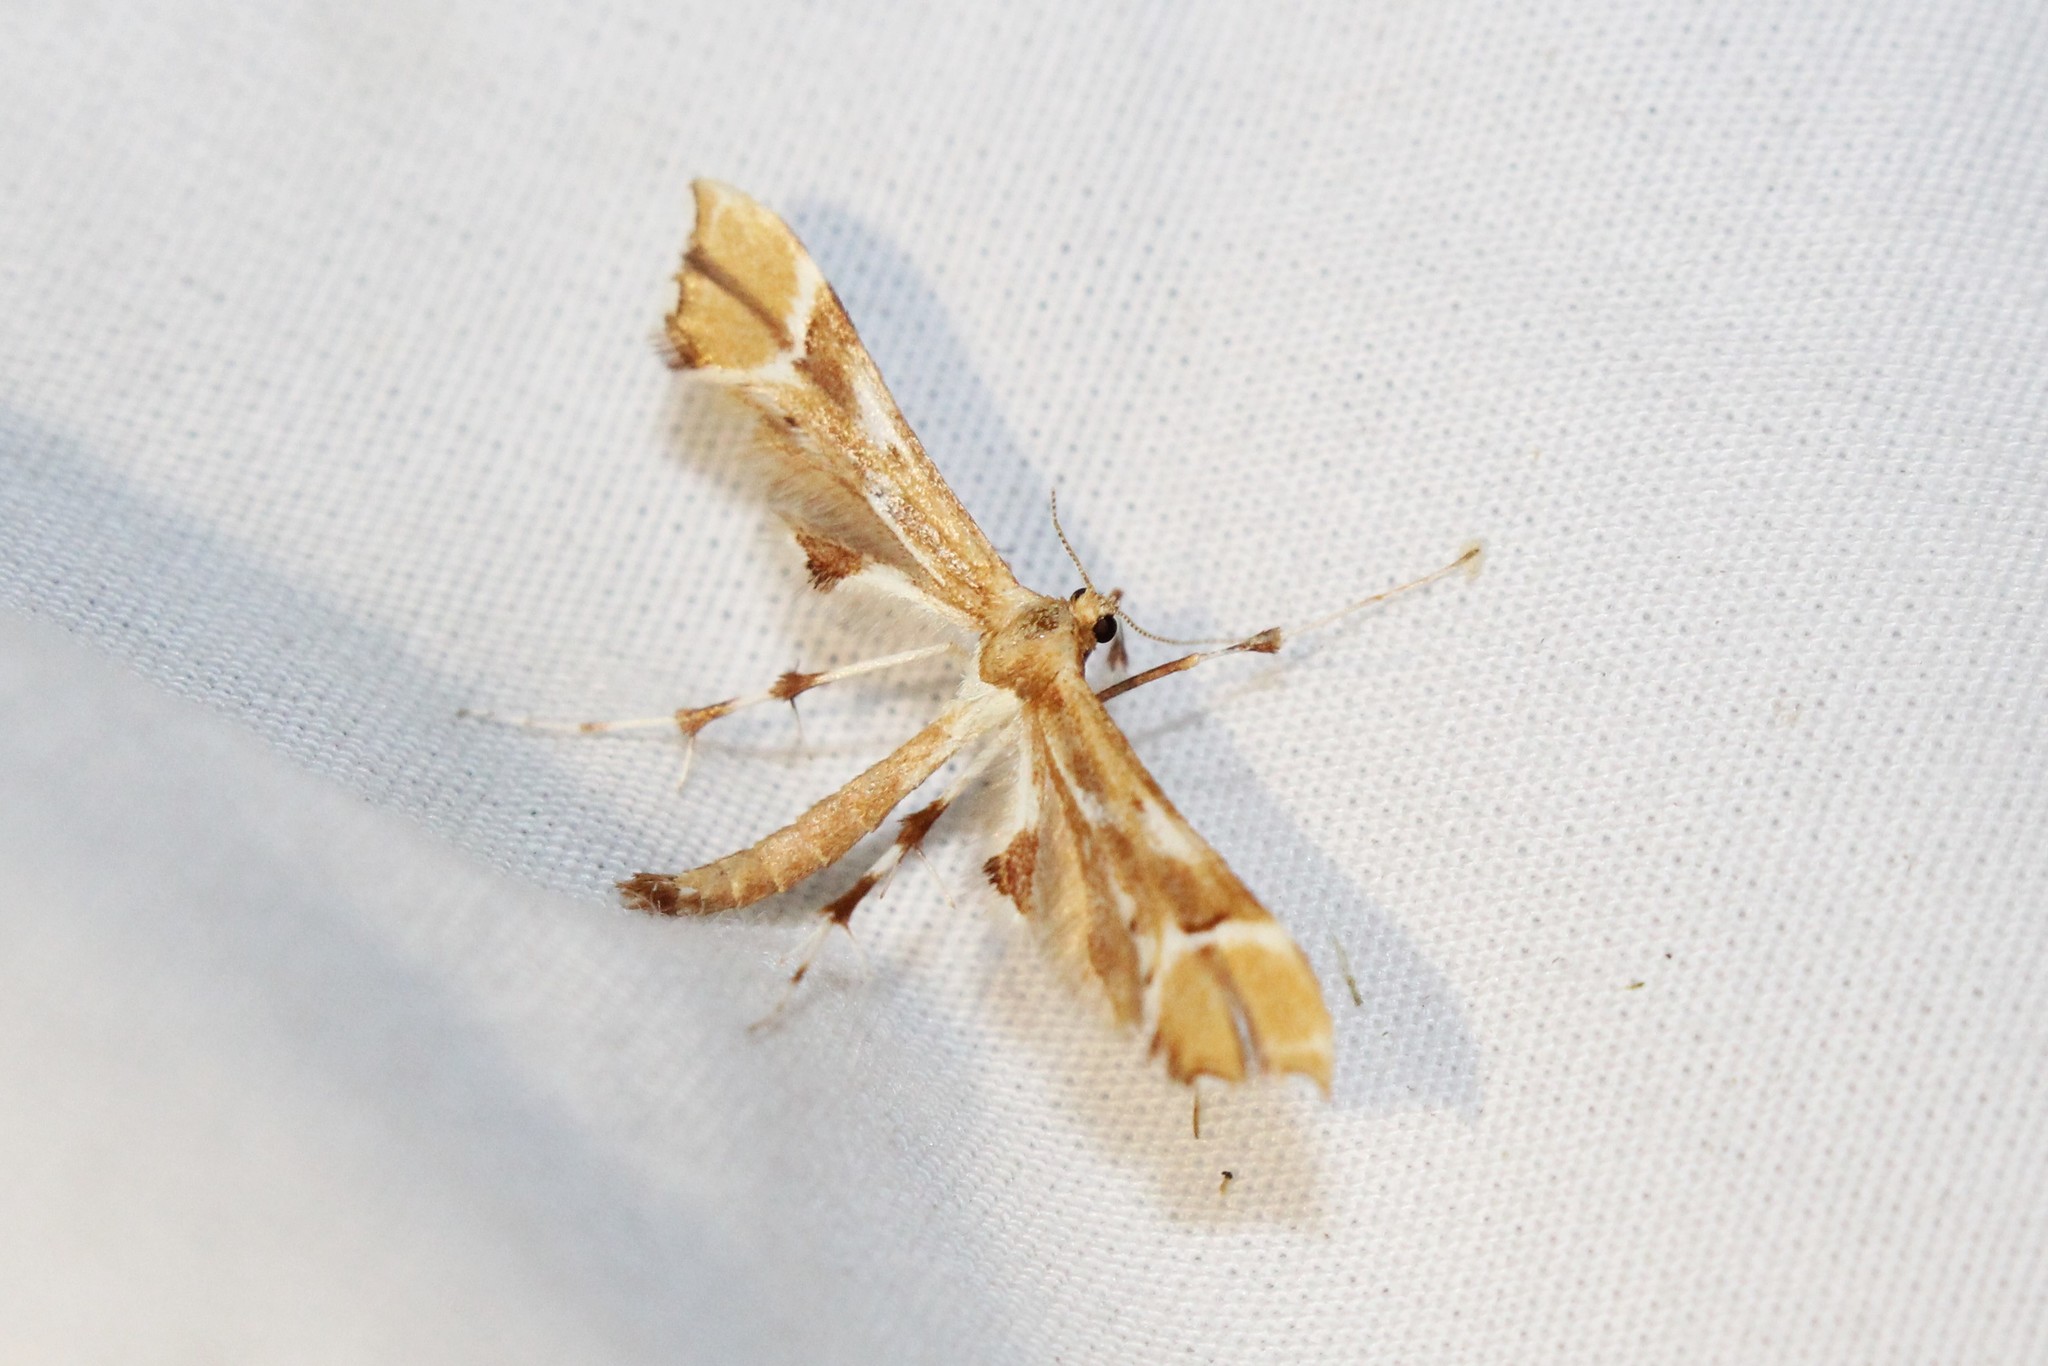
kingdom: Animalia
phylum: Arthropoda
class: Insecta
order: Lepidoptera
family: Pterophoridae
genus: Cnaemidophorus
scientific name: Cnaemidophorus rhododactyla
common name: Rose plume
